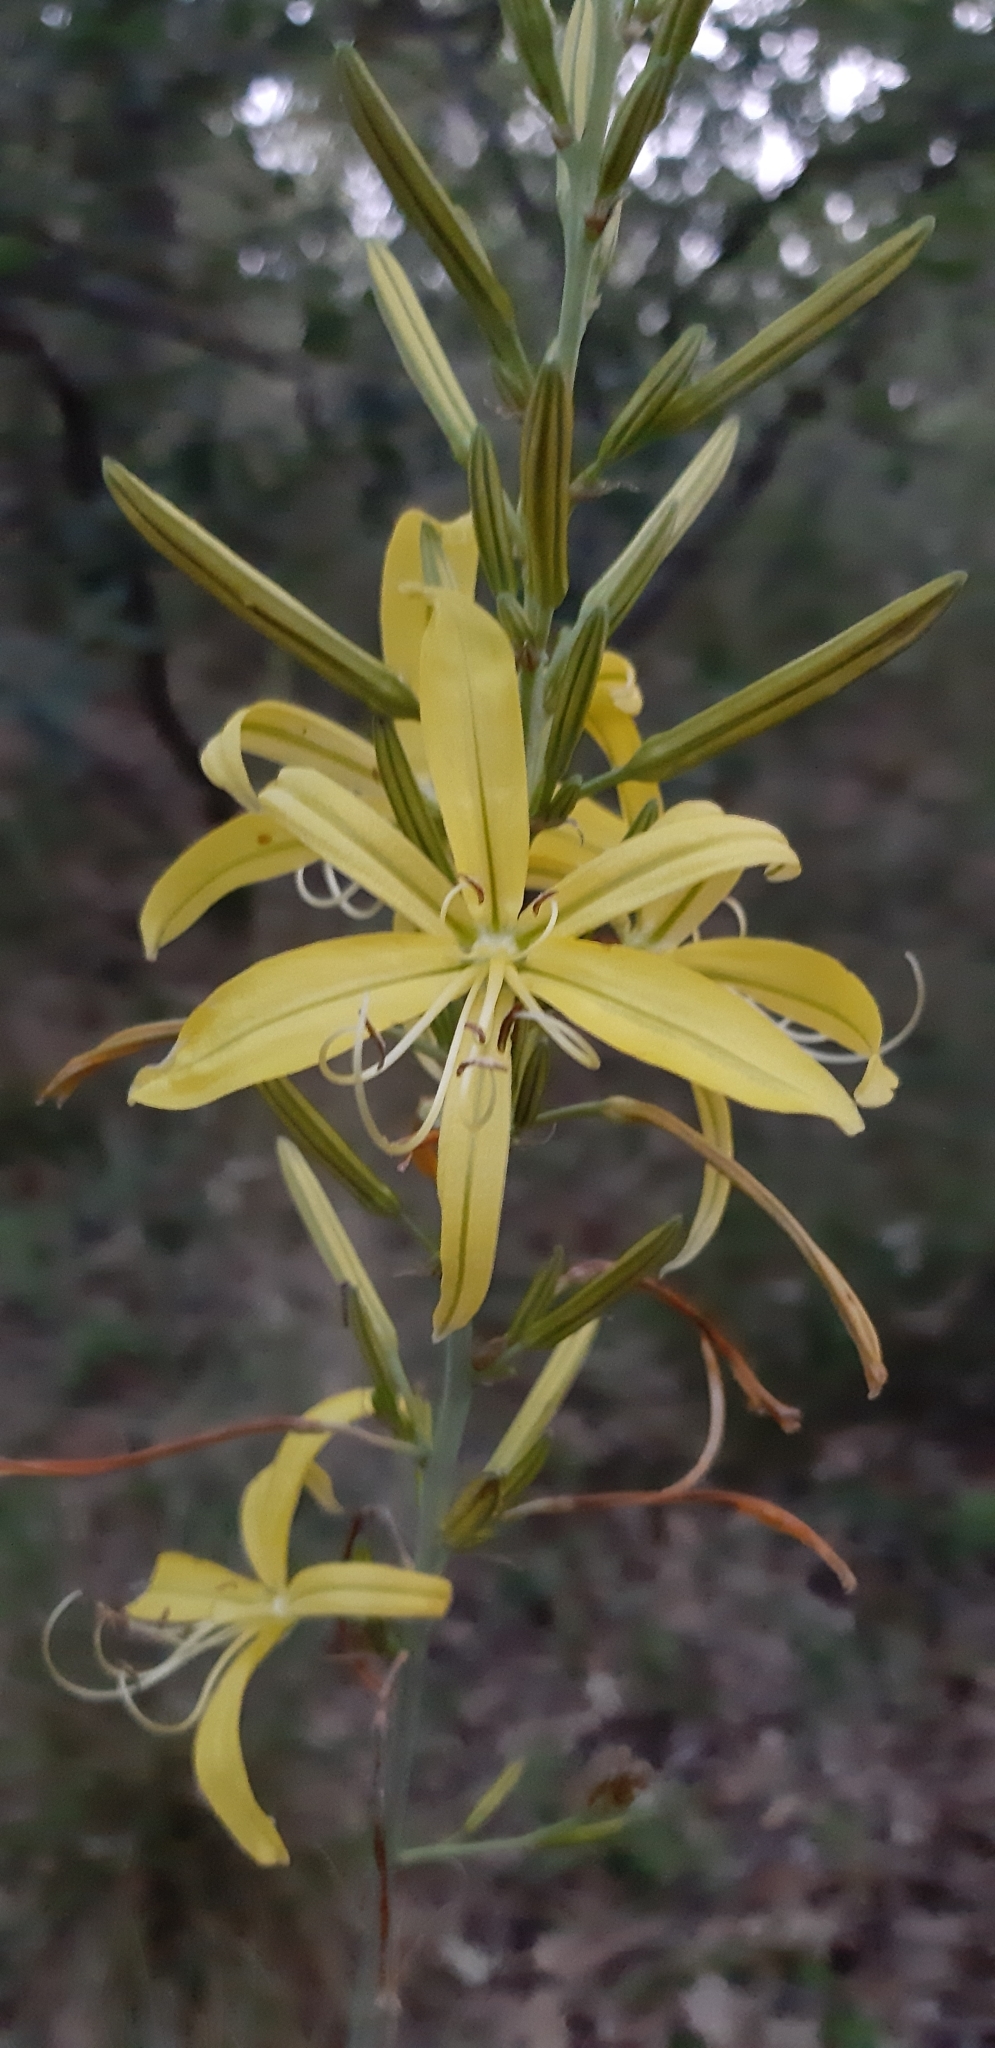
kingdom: Plantae
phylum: Tracheophyta
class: Liliopsida
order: Asparagales
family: Asphodelaceae
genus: Asphodeline
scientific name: Asphodeline liburnica
